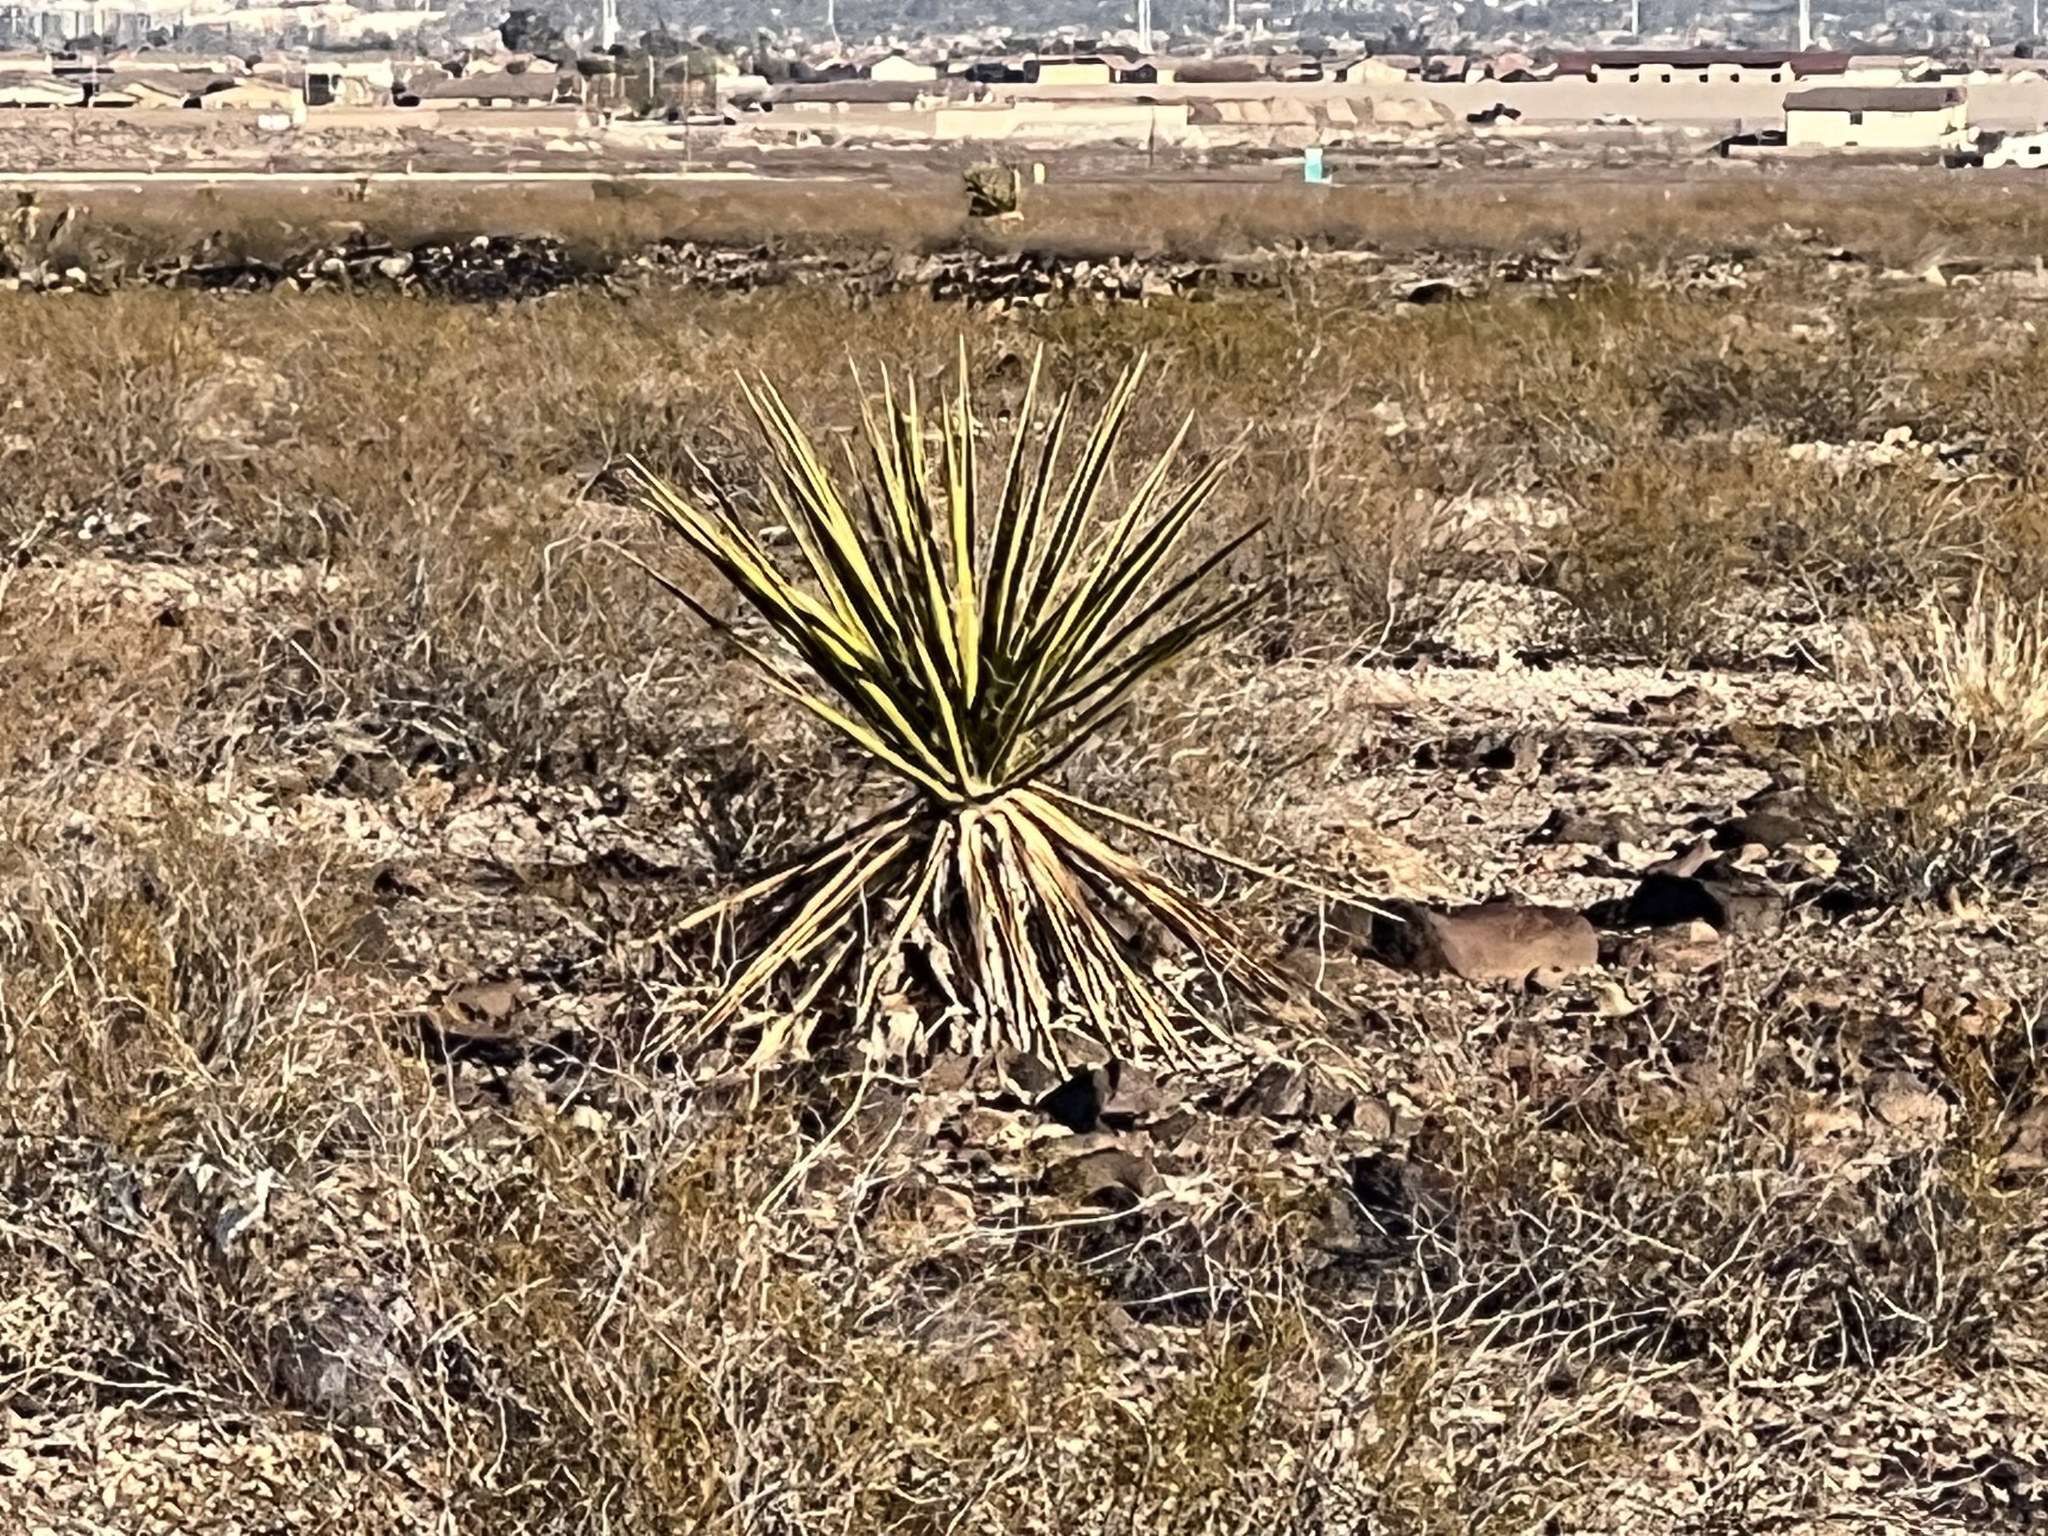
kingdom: Plantae
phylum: Tracheophyta
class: Liliopsida
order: Asparagales
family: Asparagaceae
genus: Yucca
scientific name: Yucca schidigera
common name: Mojave yucca
